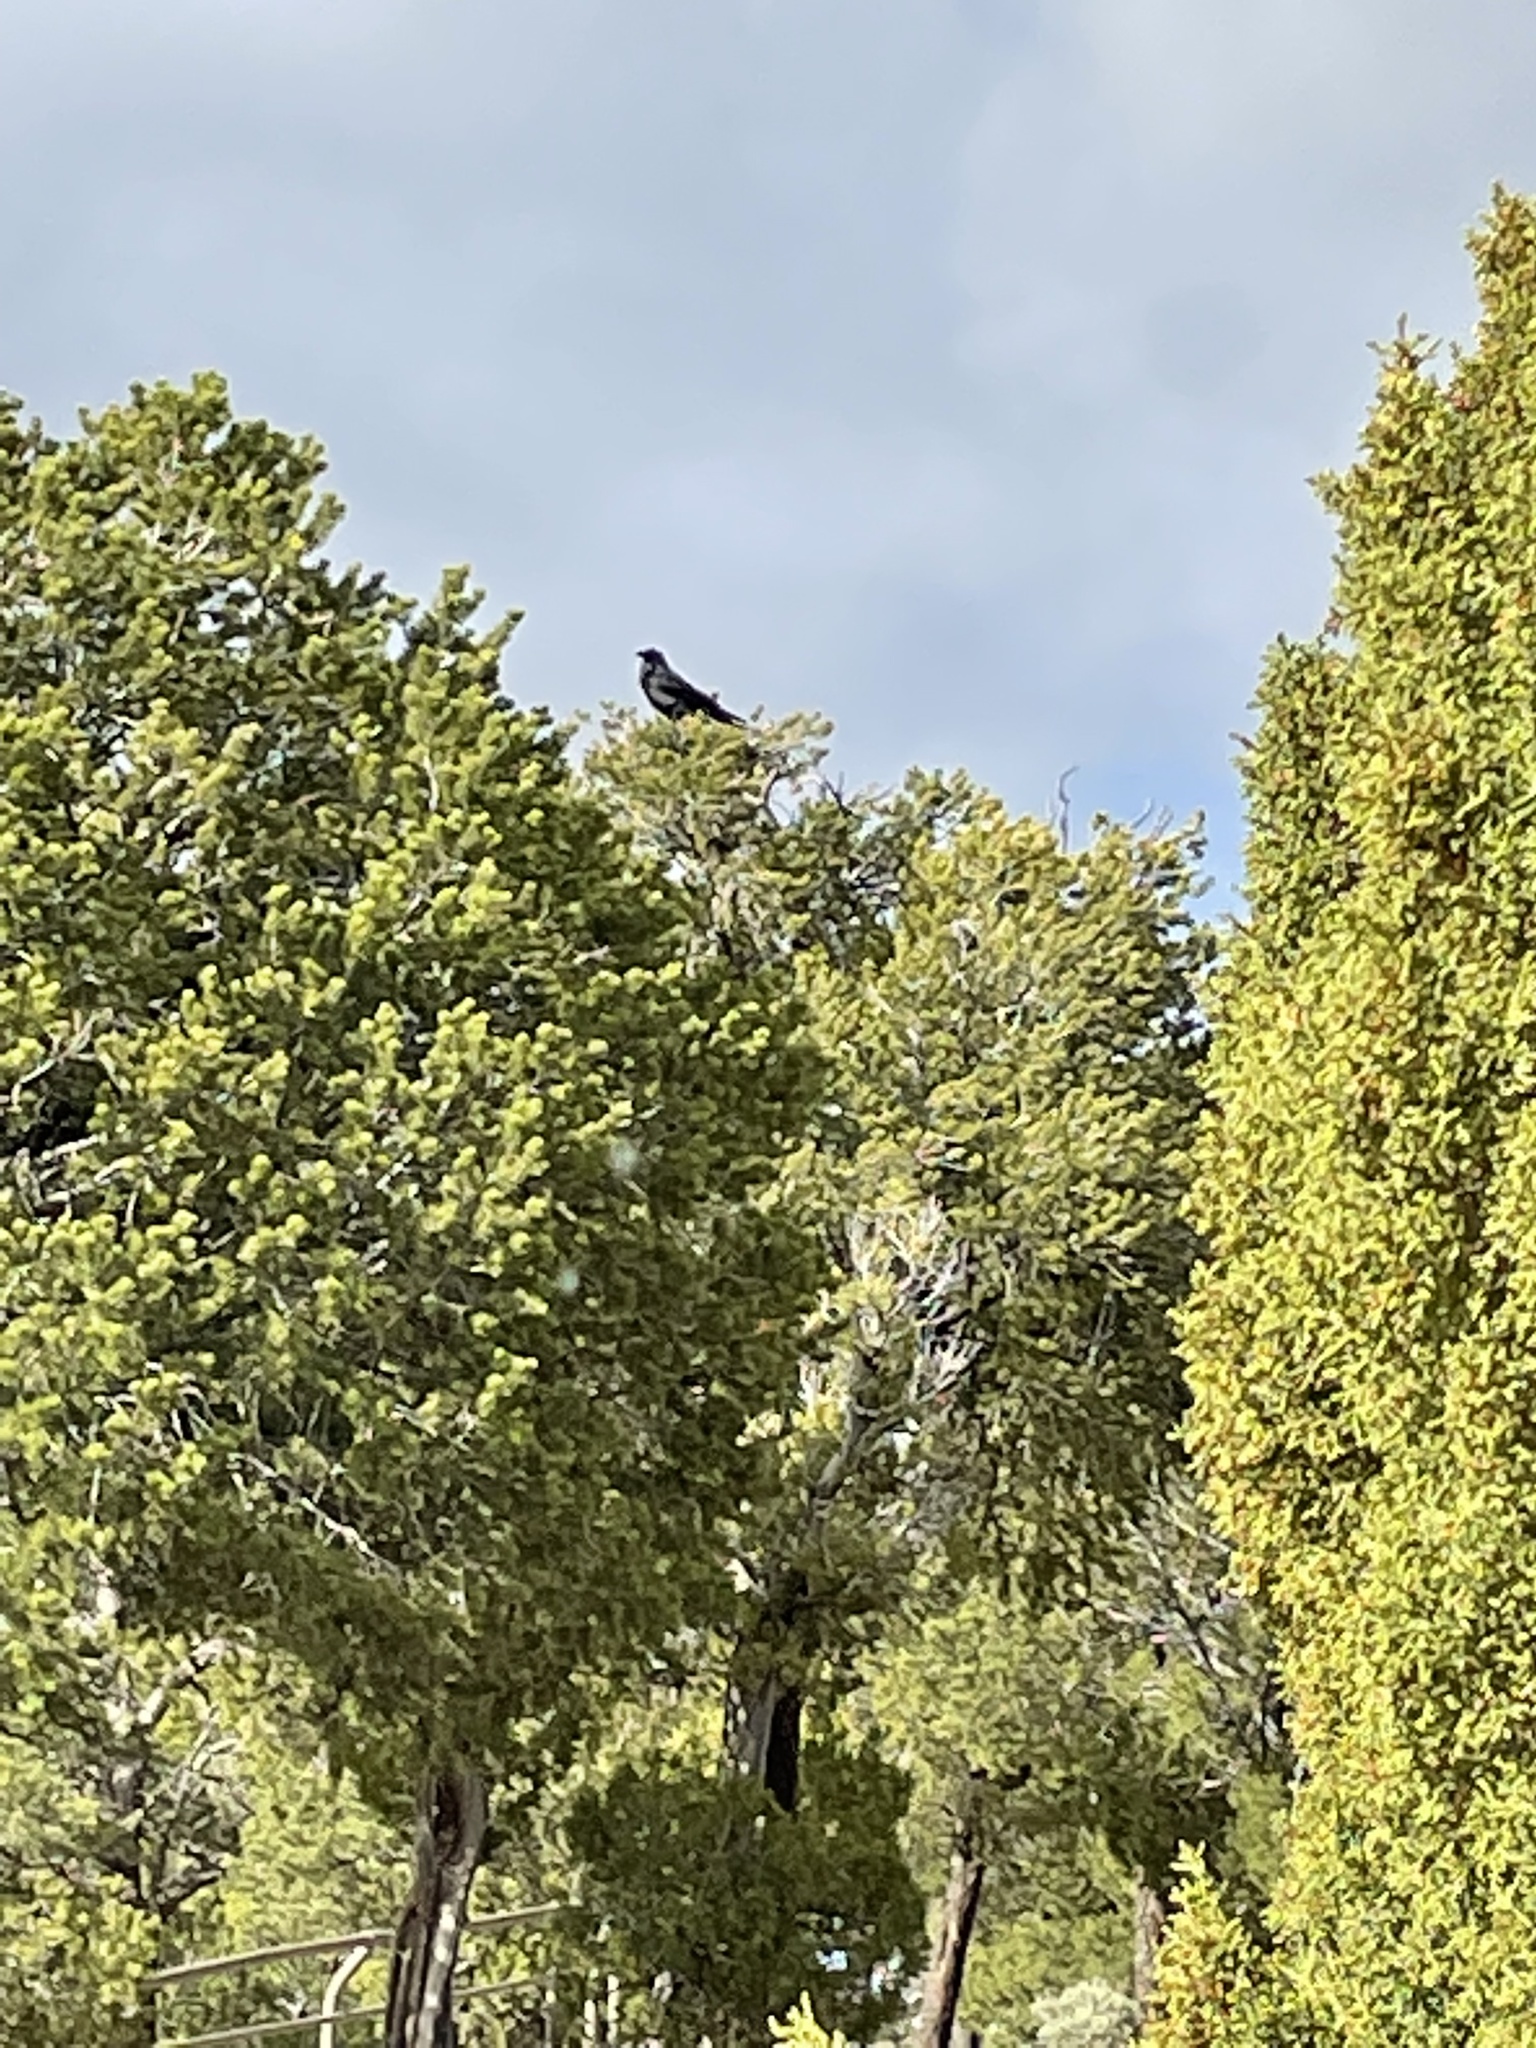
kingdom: Animalia
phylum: Chordata
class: Aves
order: Passeriformes
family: Corvidae
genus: Corvus
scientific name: Corvus corax
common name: Common raven
